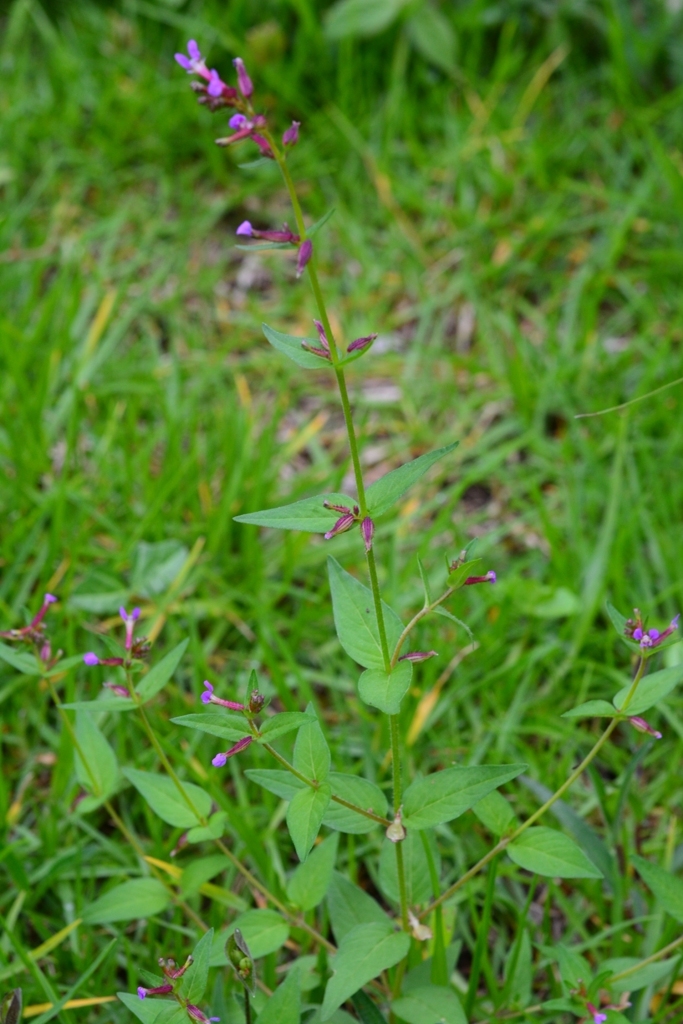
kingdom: Plantae
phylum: Tracheophyta
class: Magnoliopsida
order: Myrtales
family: Lythraceae
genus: Cuphea
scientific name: Cuphea wrightii
